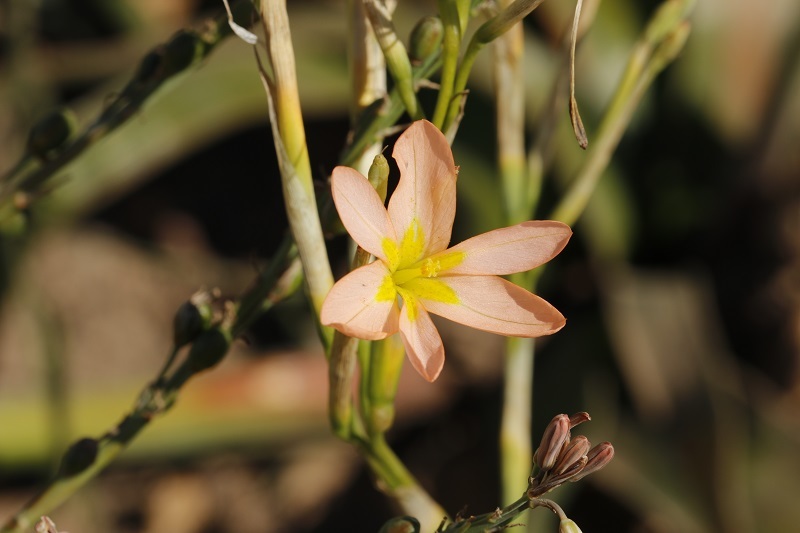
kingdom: Plantae
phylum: Tracheophyta
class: Liliopsida
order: Asparagales
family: Iridaceae
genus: Moraea
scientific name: Moraea miniata
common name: Two-leaf cape-tulip
